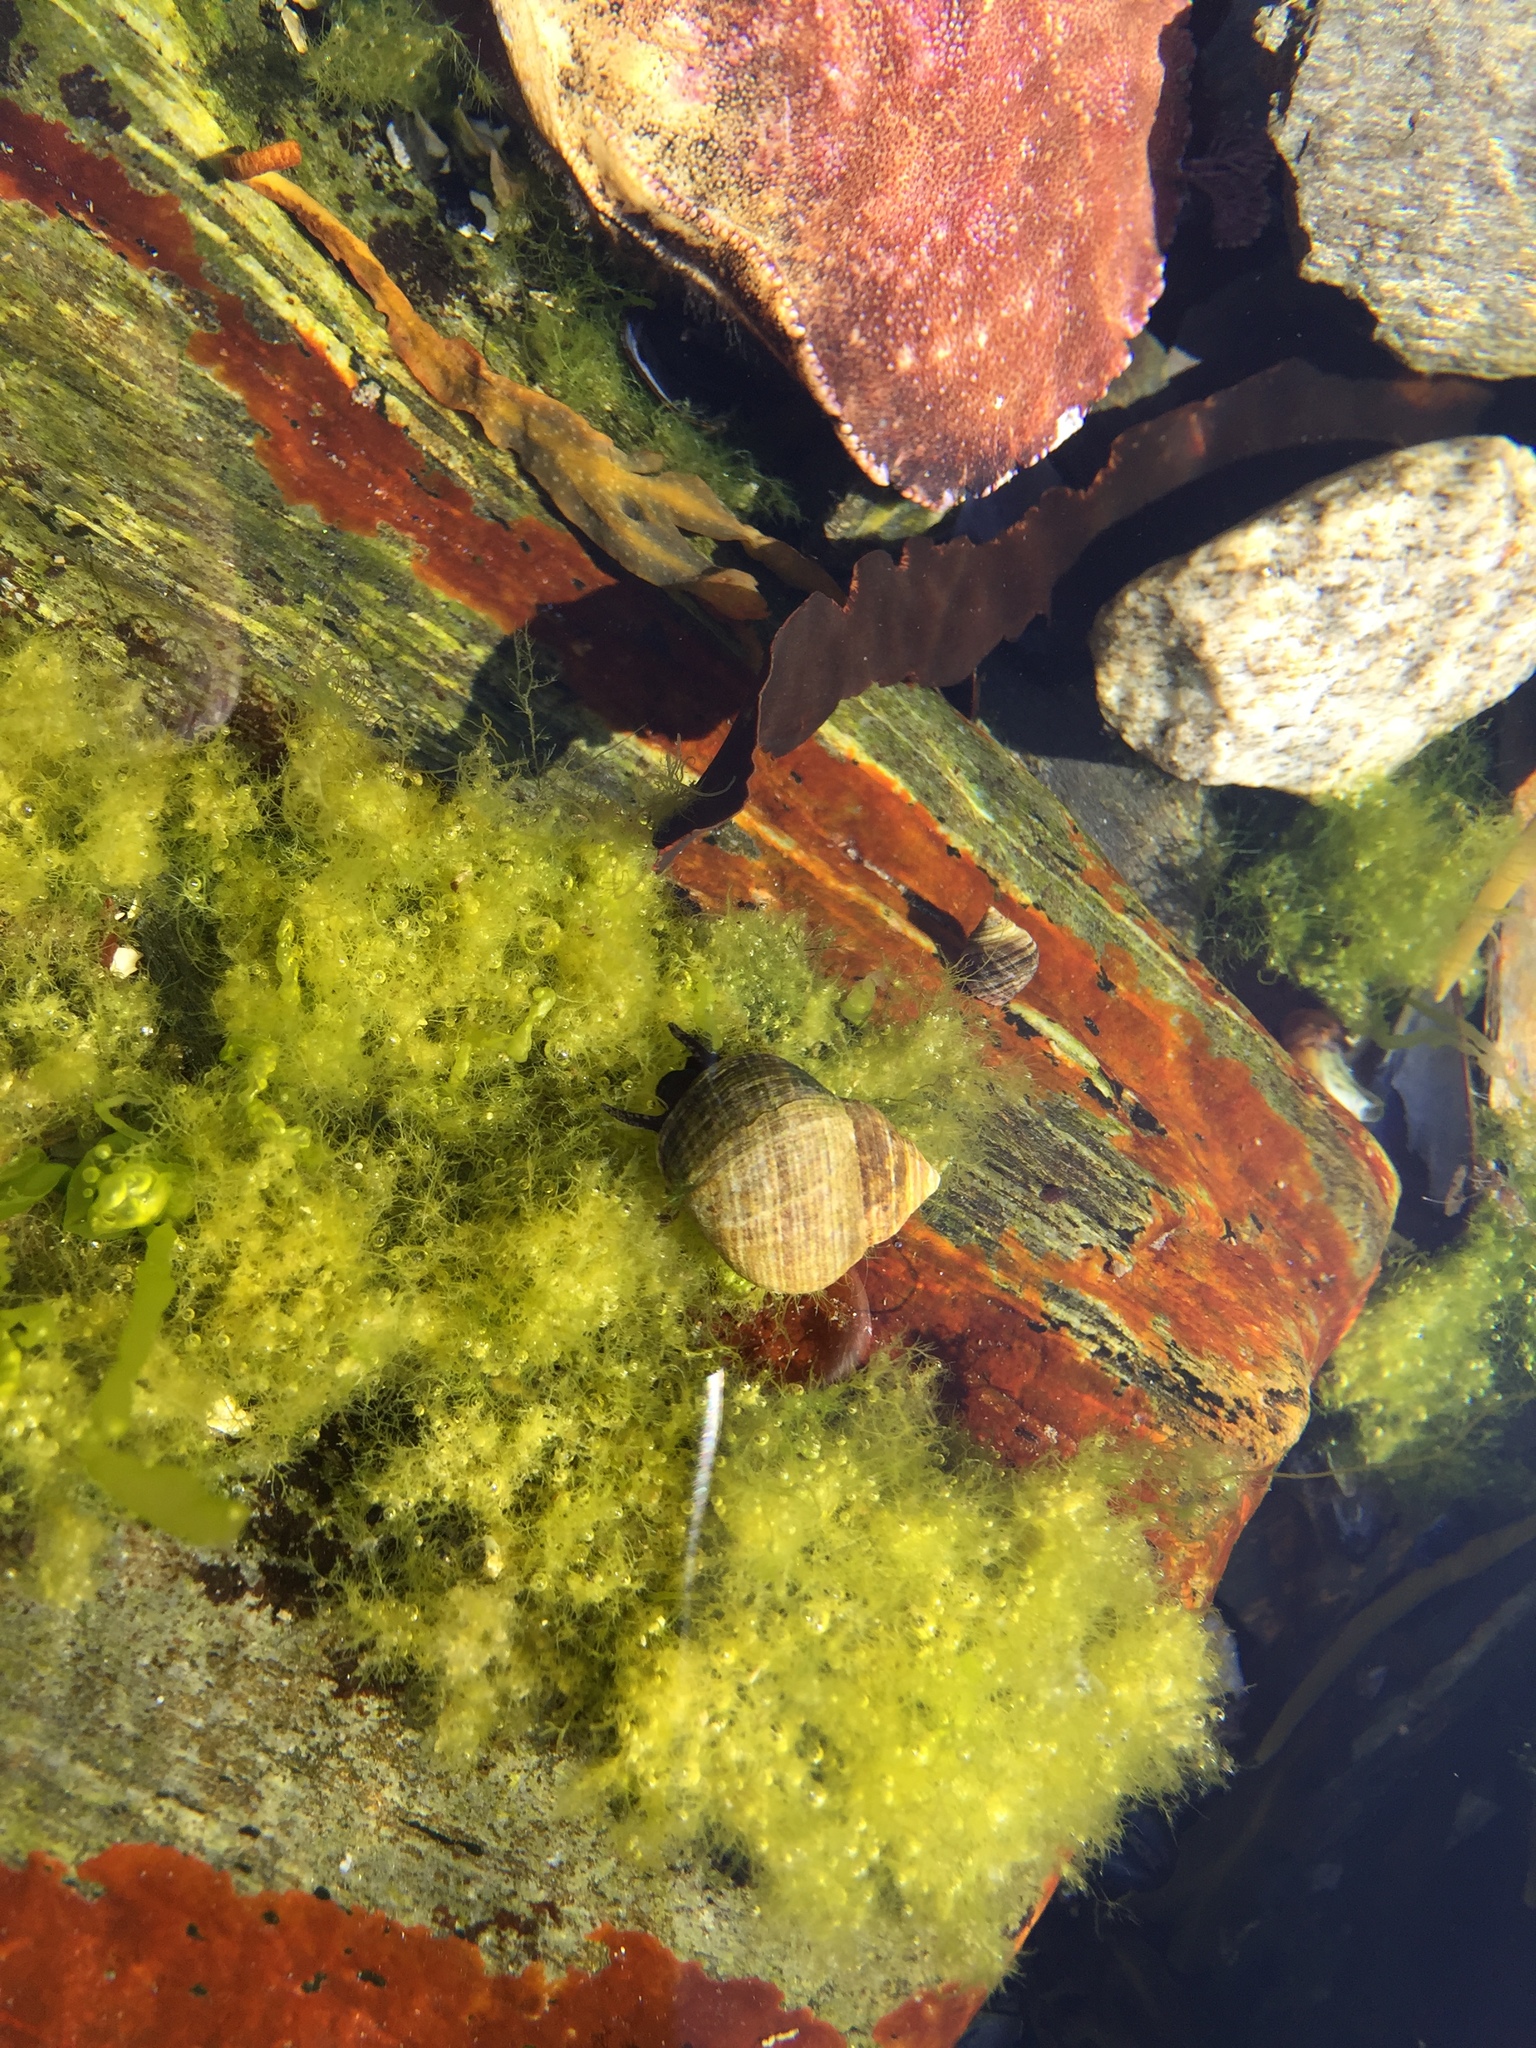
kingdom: Animalia
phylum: Mollusca
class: Gastropoda
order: Littorinimorpha
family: Littorinidae
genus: Littorina
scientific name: Littorina littorea
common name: Common periwinkle
